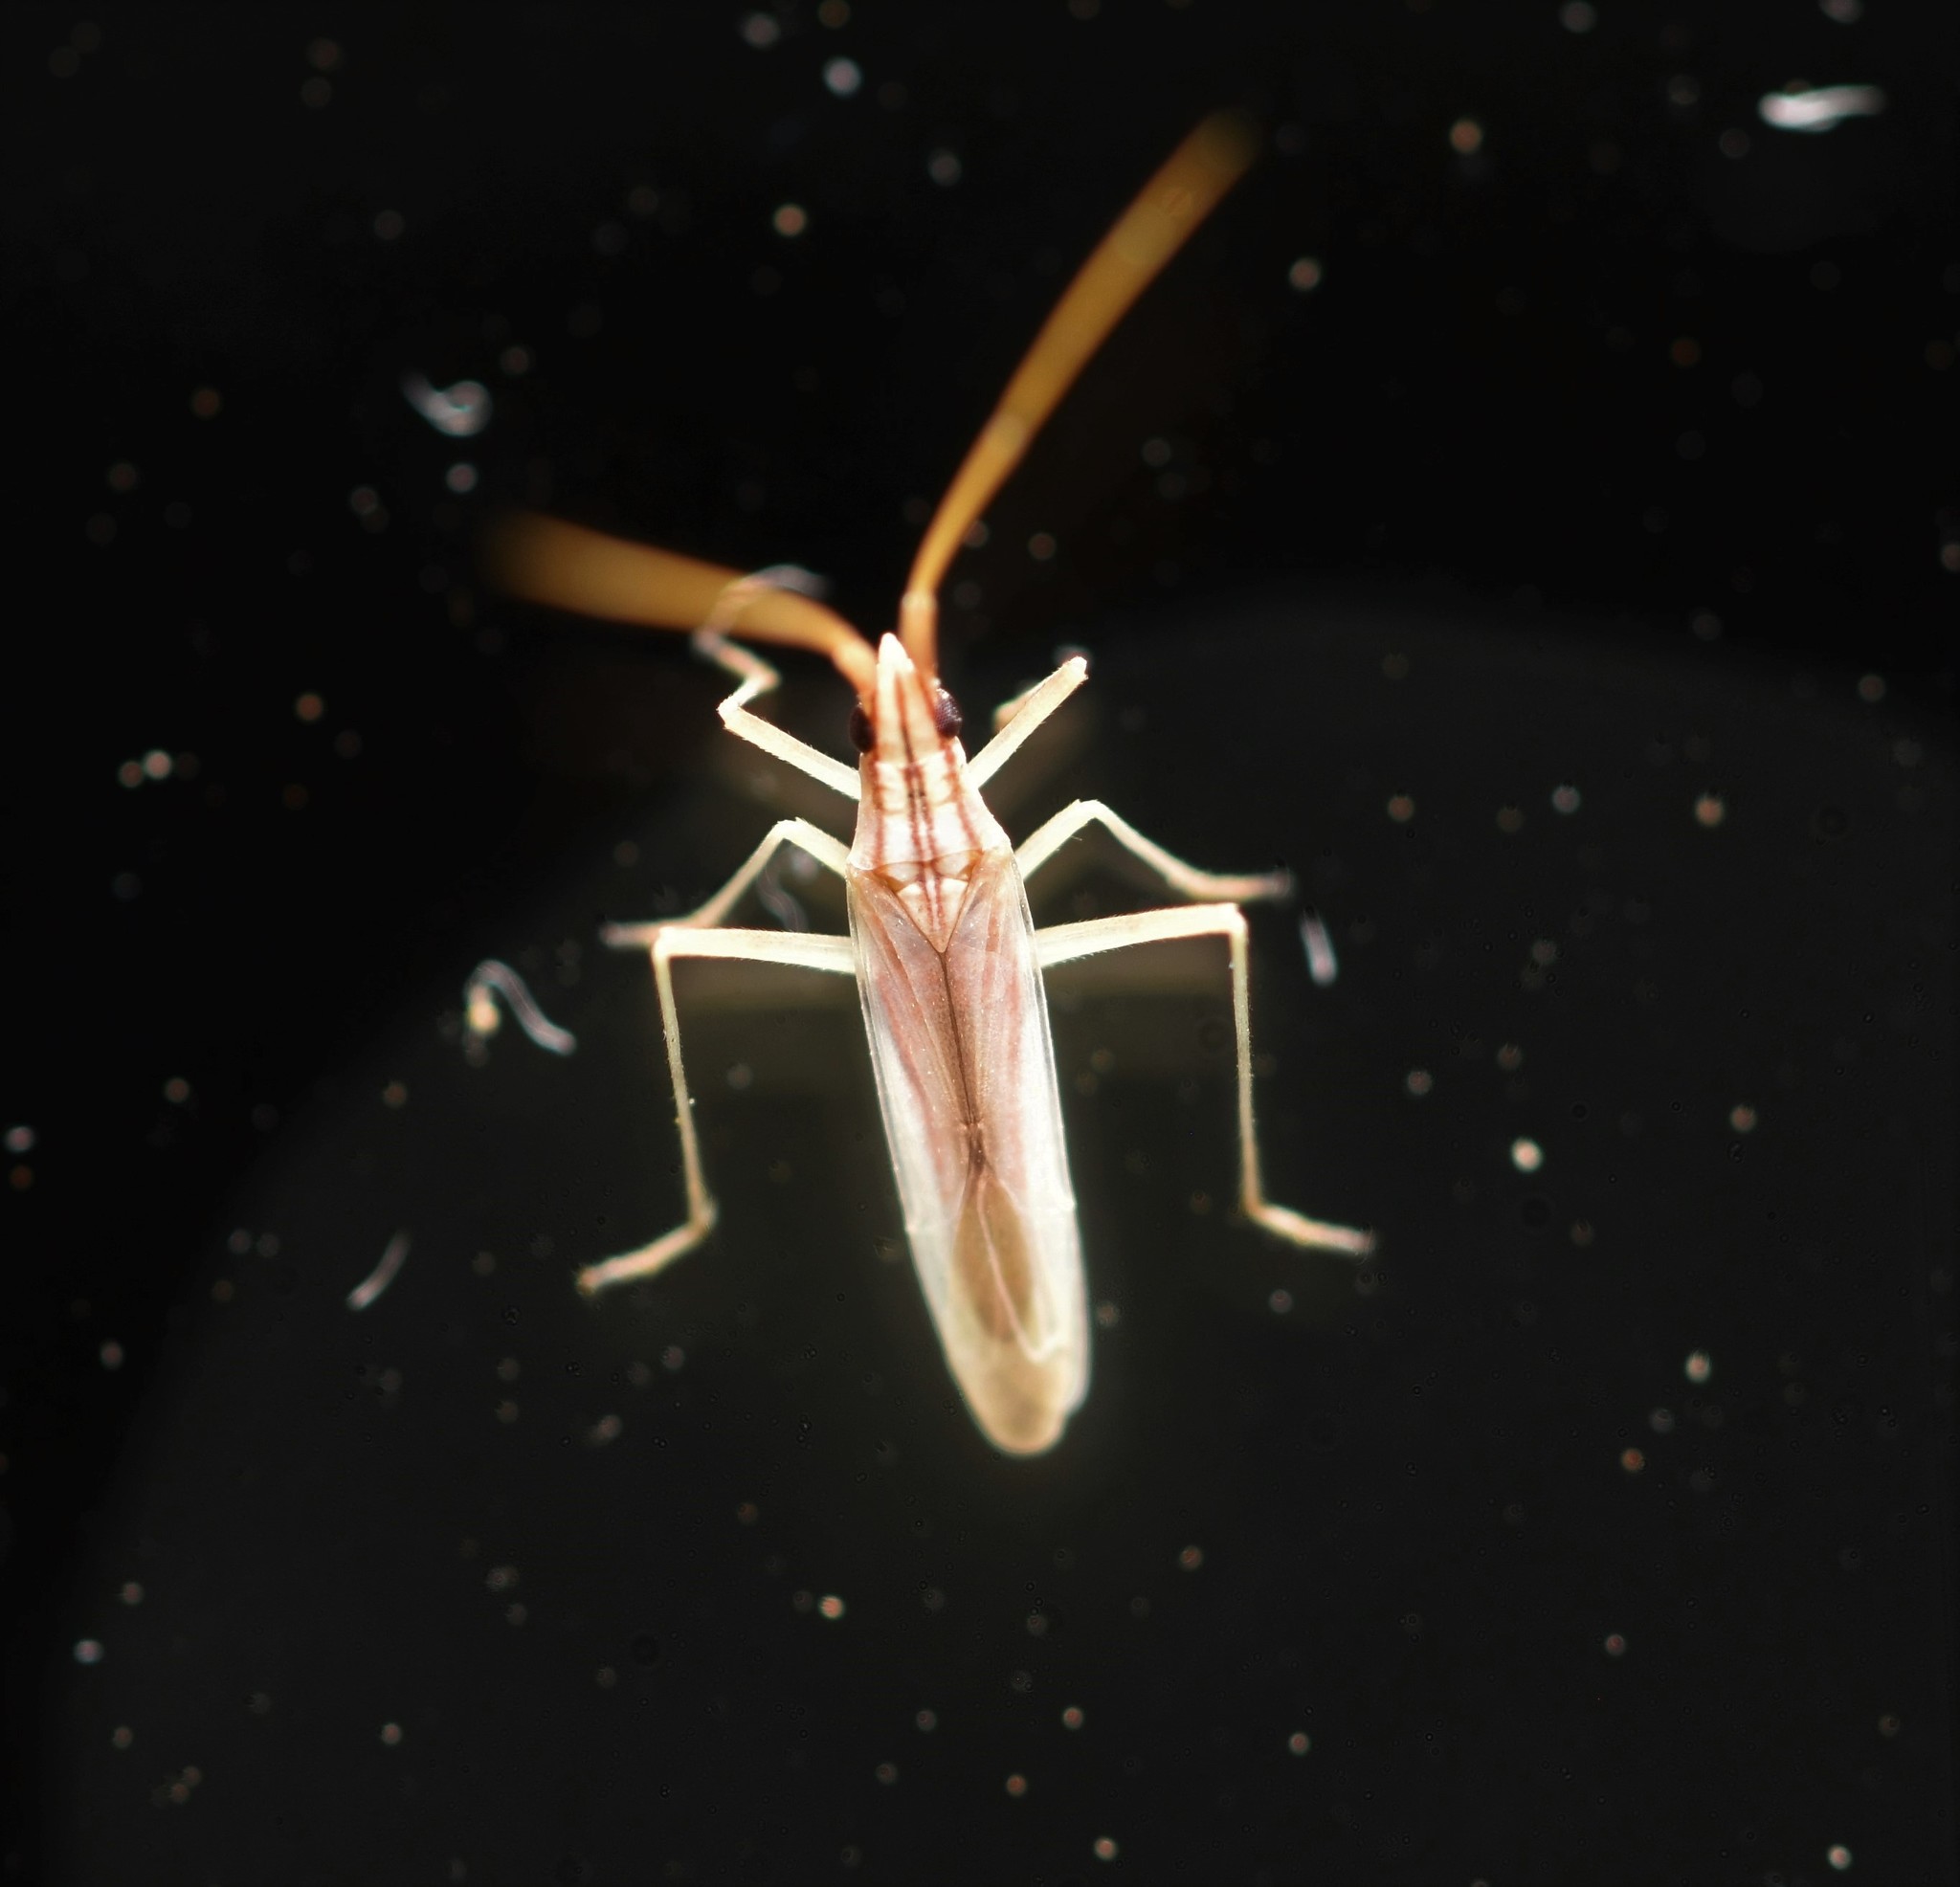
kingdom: Animalia
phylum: Arthropoda
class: Insecta
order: Hemiptera
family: Miridae
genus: Trigonotylus
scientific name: Trigonotylus pulcher
